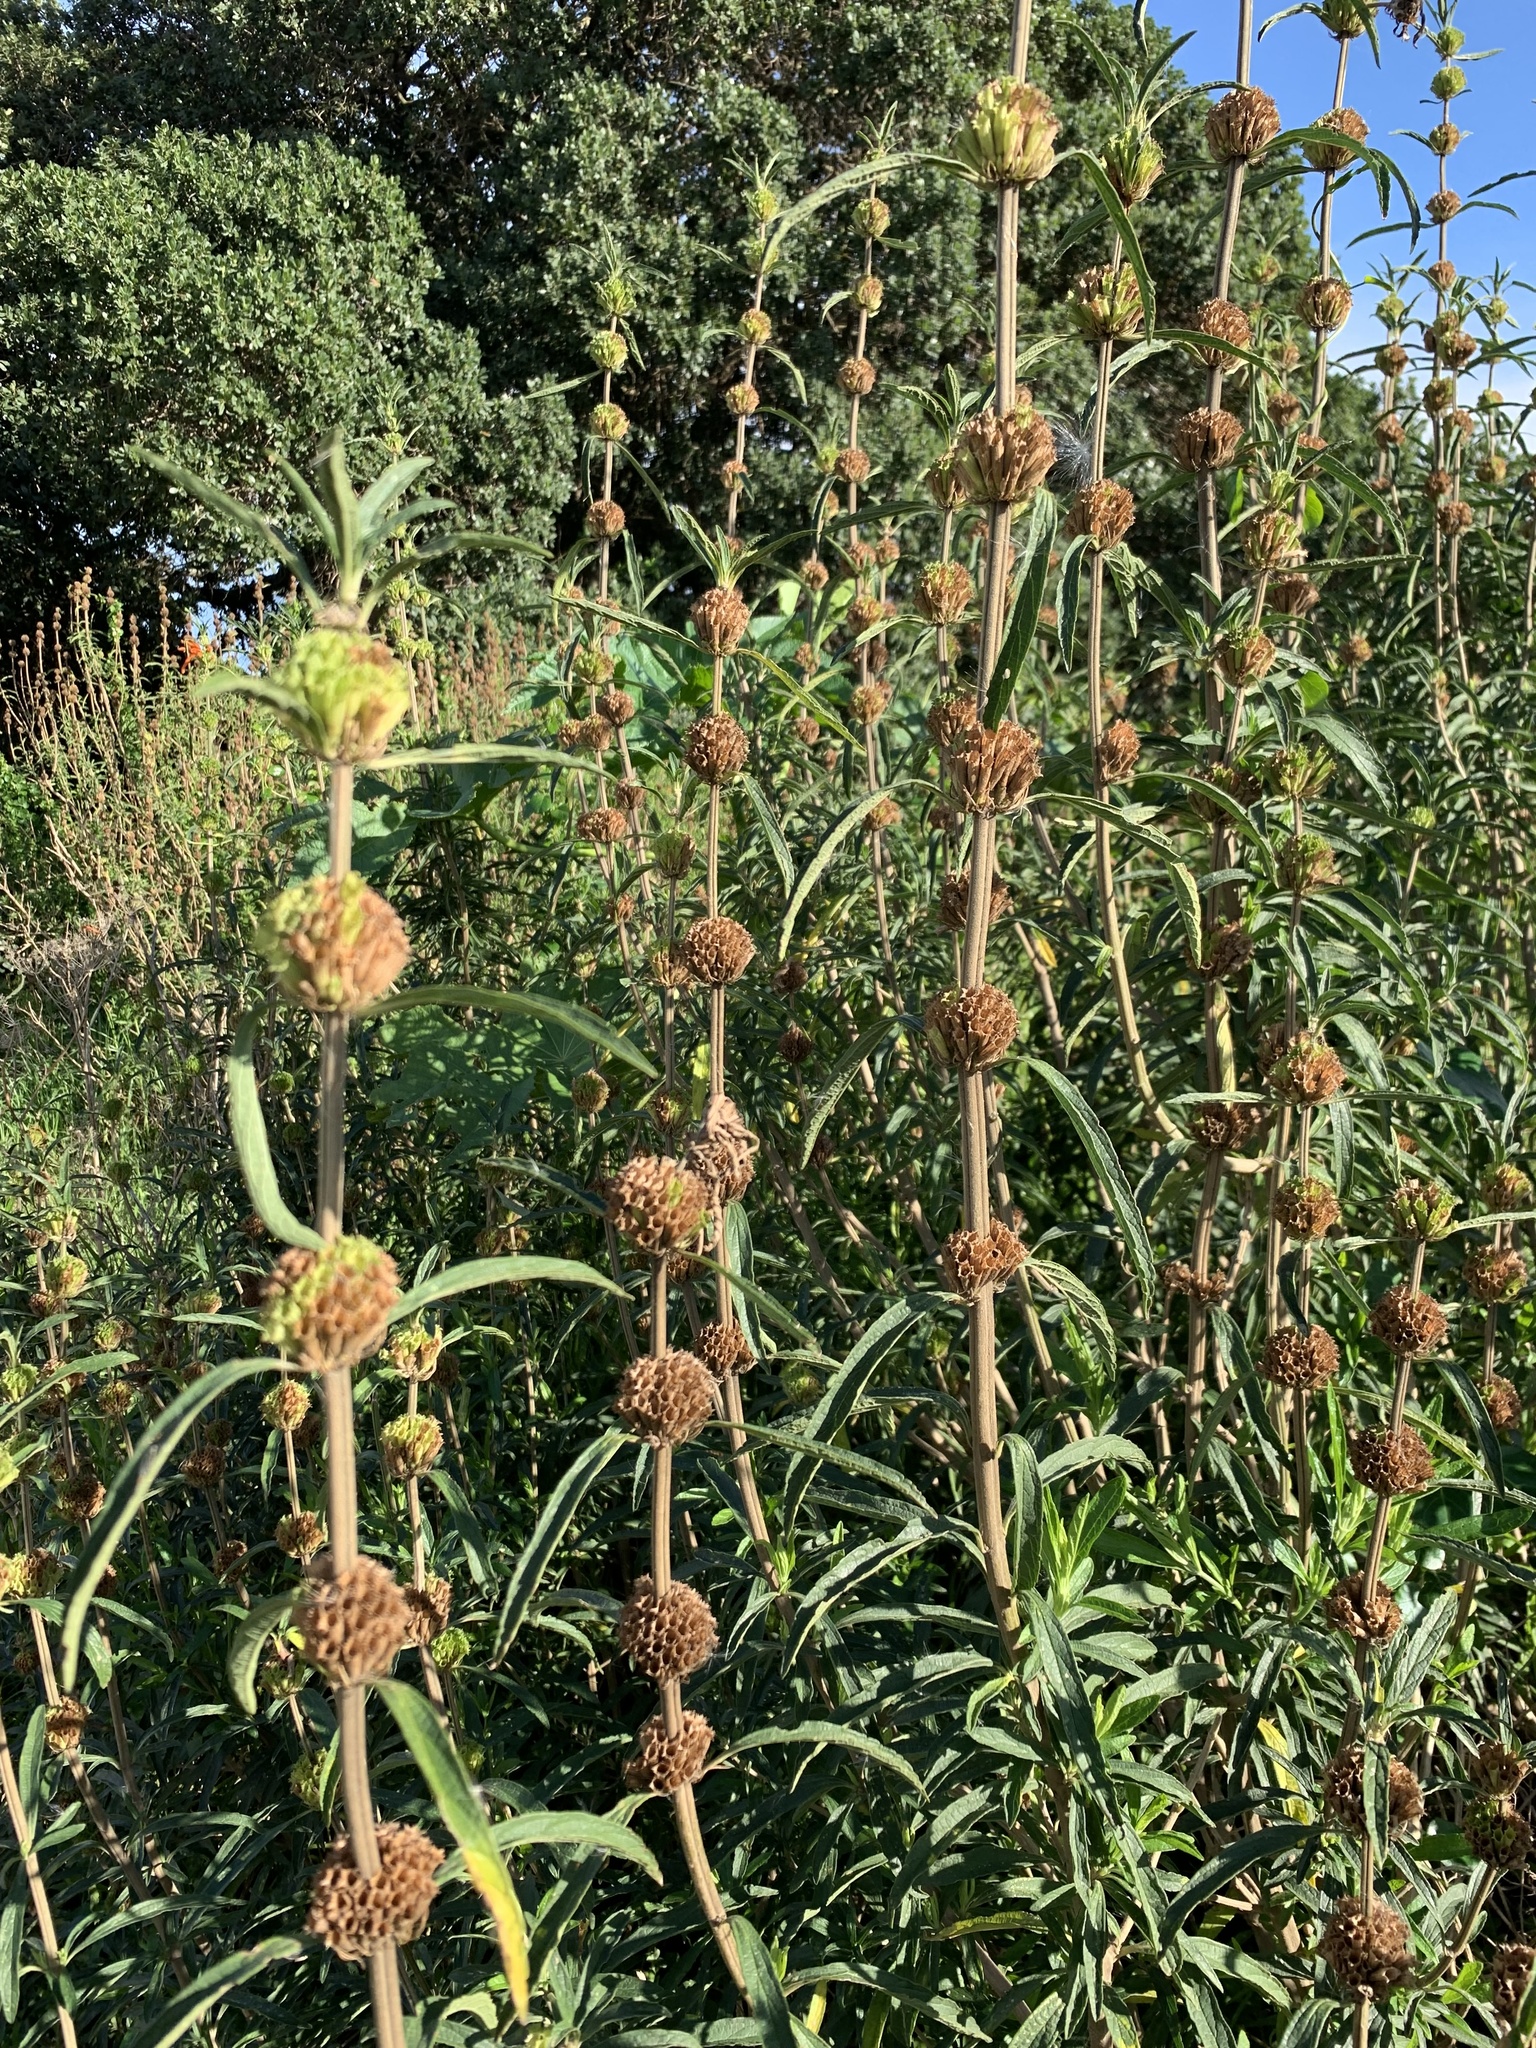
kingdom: Plantae
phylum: Tracheophyta
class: Magnoliopsida
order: Lamiales
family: Lamiaceae
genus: Leonotis
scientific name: Leonotis leonurus
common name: Lion's ear
